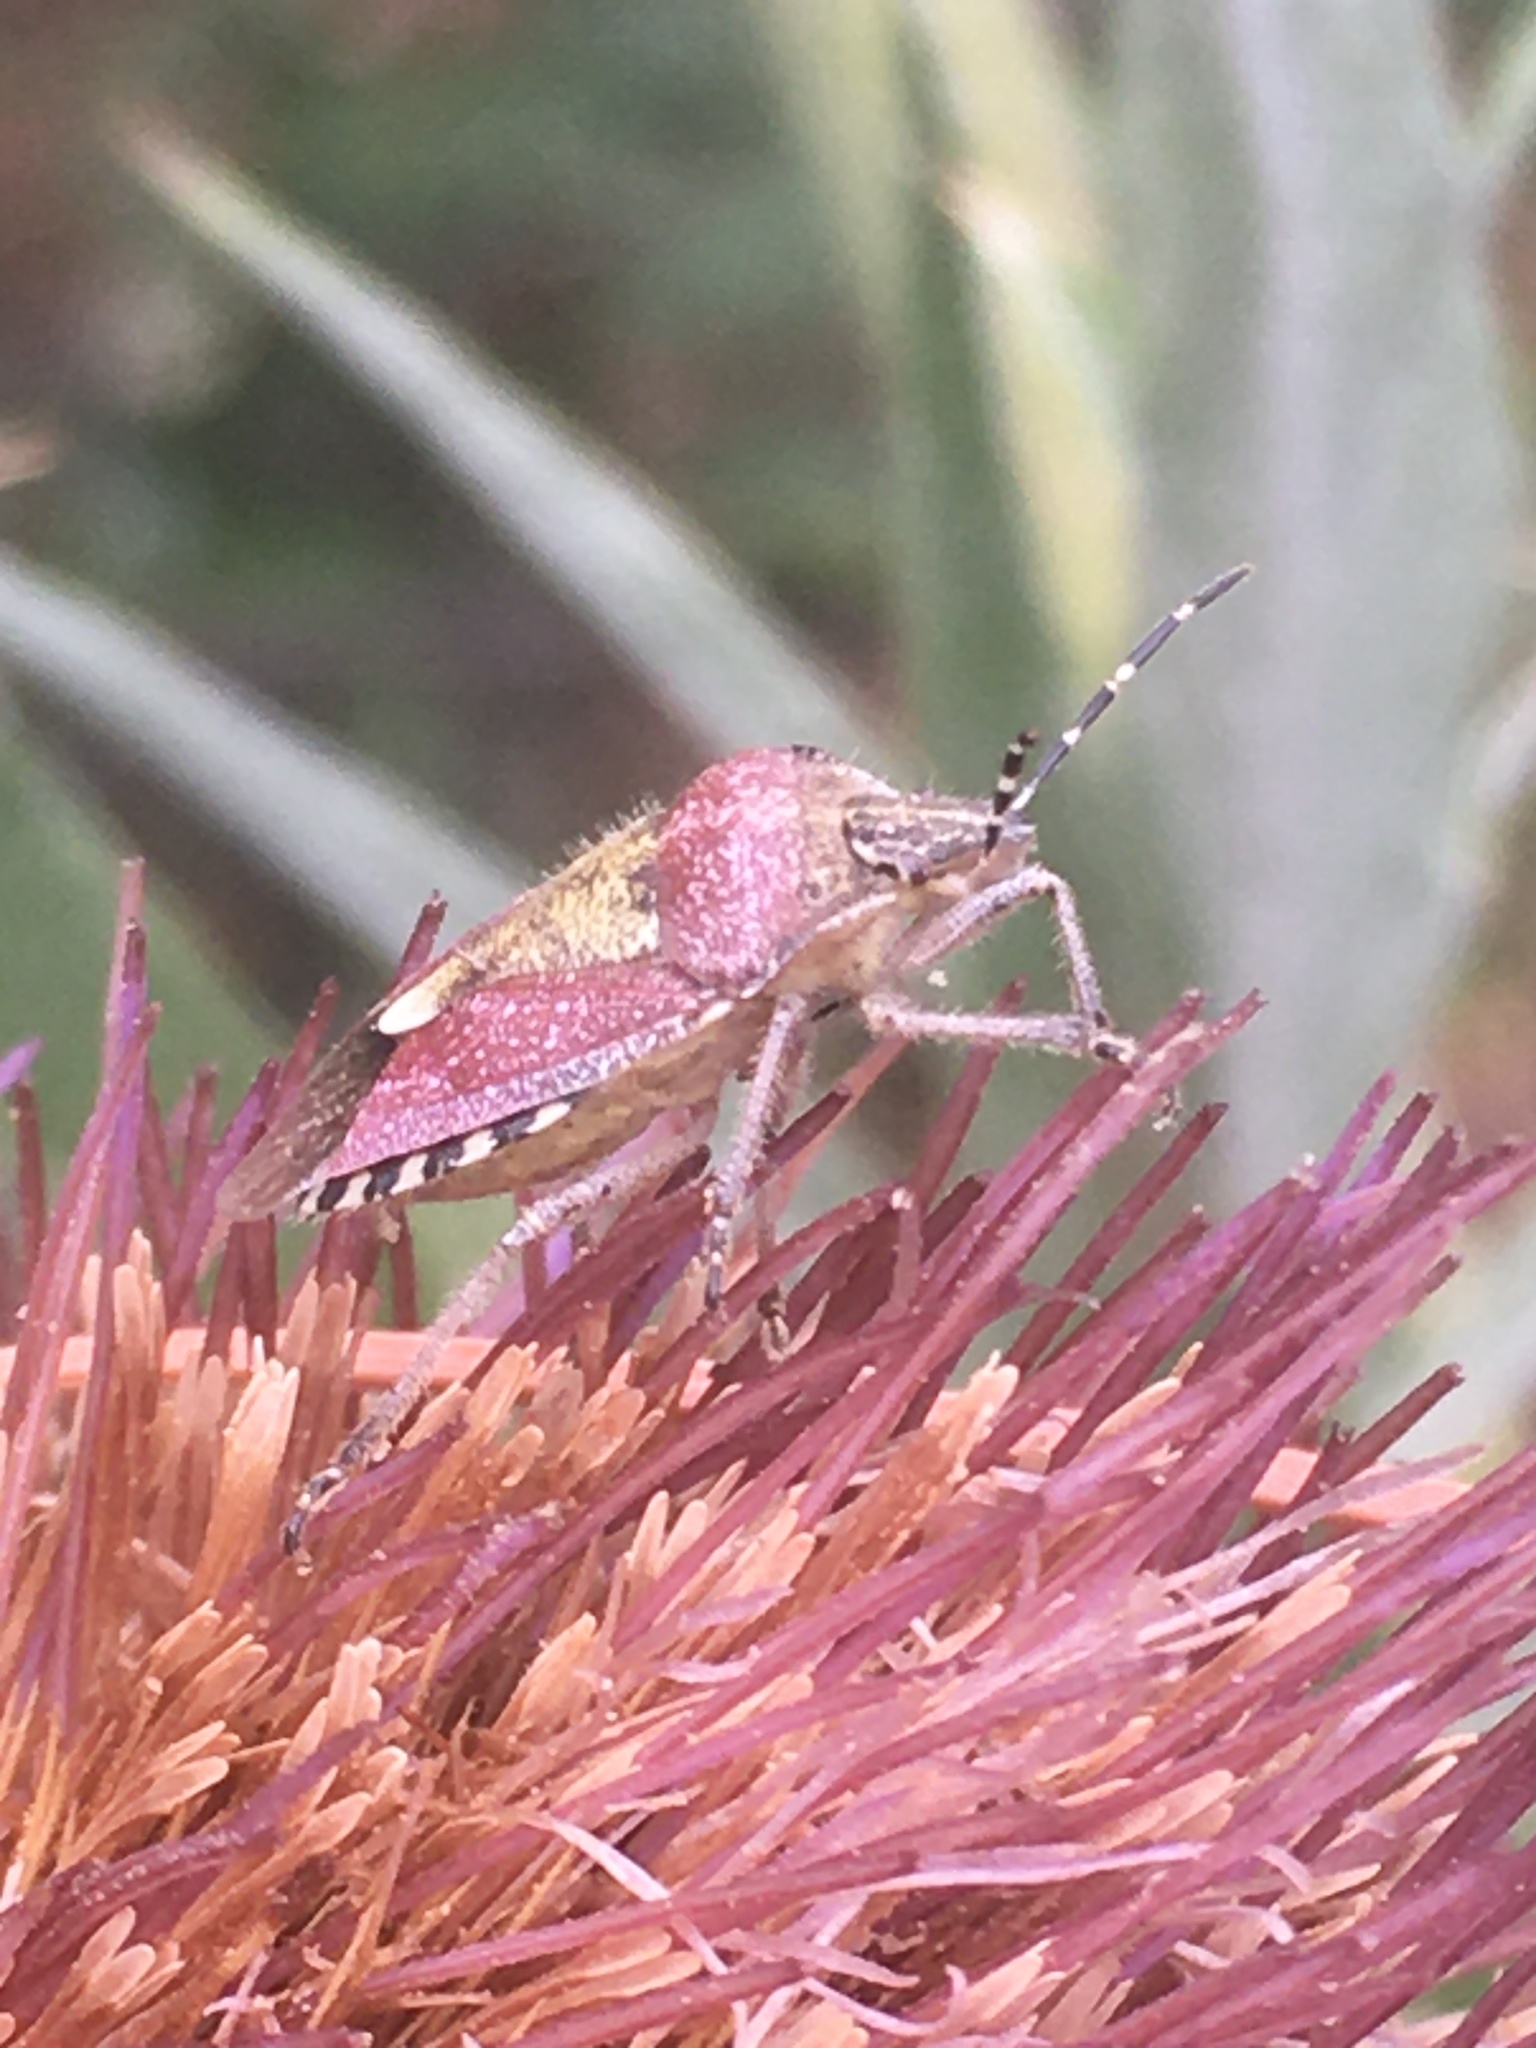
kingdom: Animalia
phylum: Arthropoda
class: Insecta
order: Hemiptera
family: Pentatomidae
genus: Dolycoris
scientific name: Dolycoris baccarum
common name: Sloe bug
